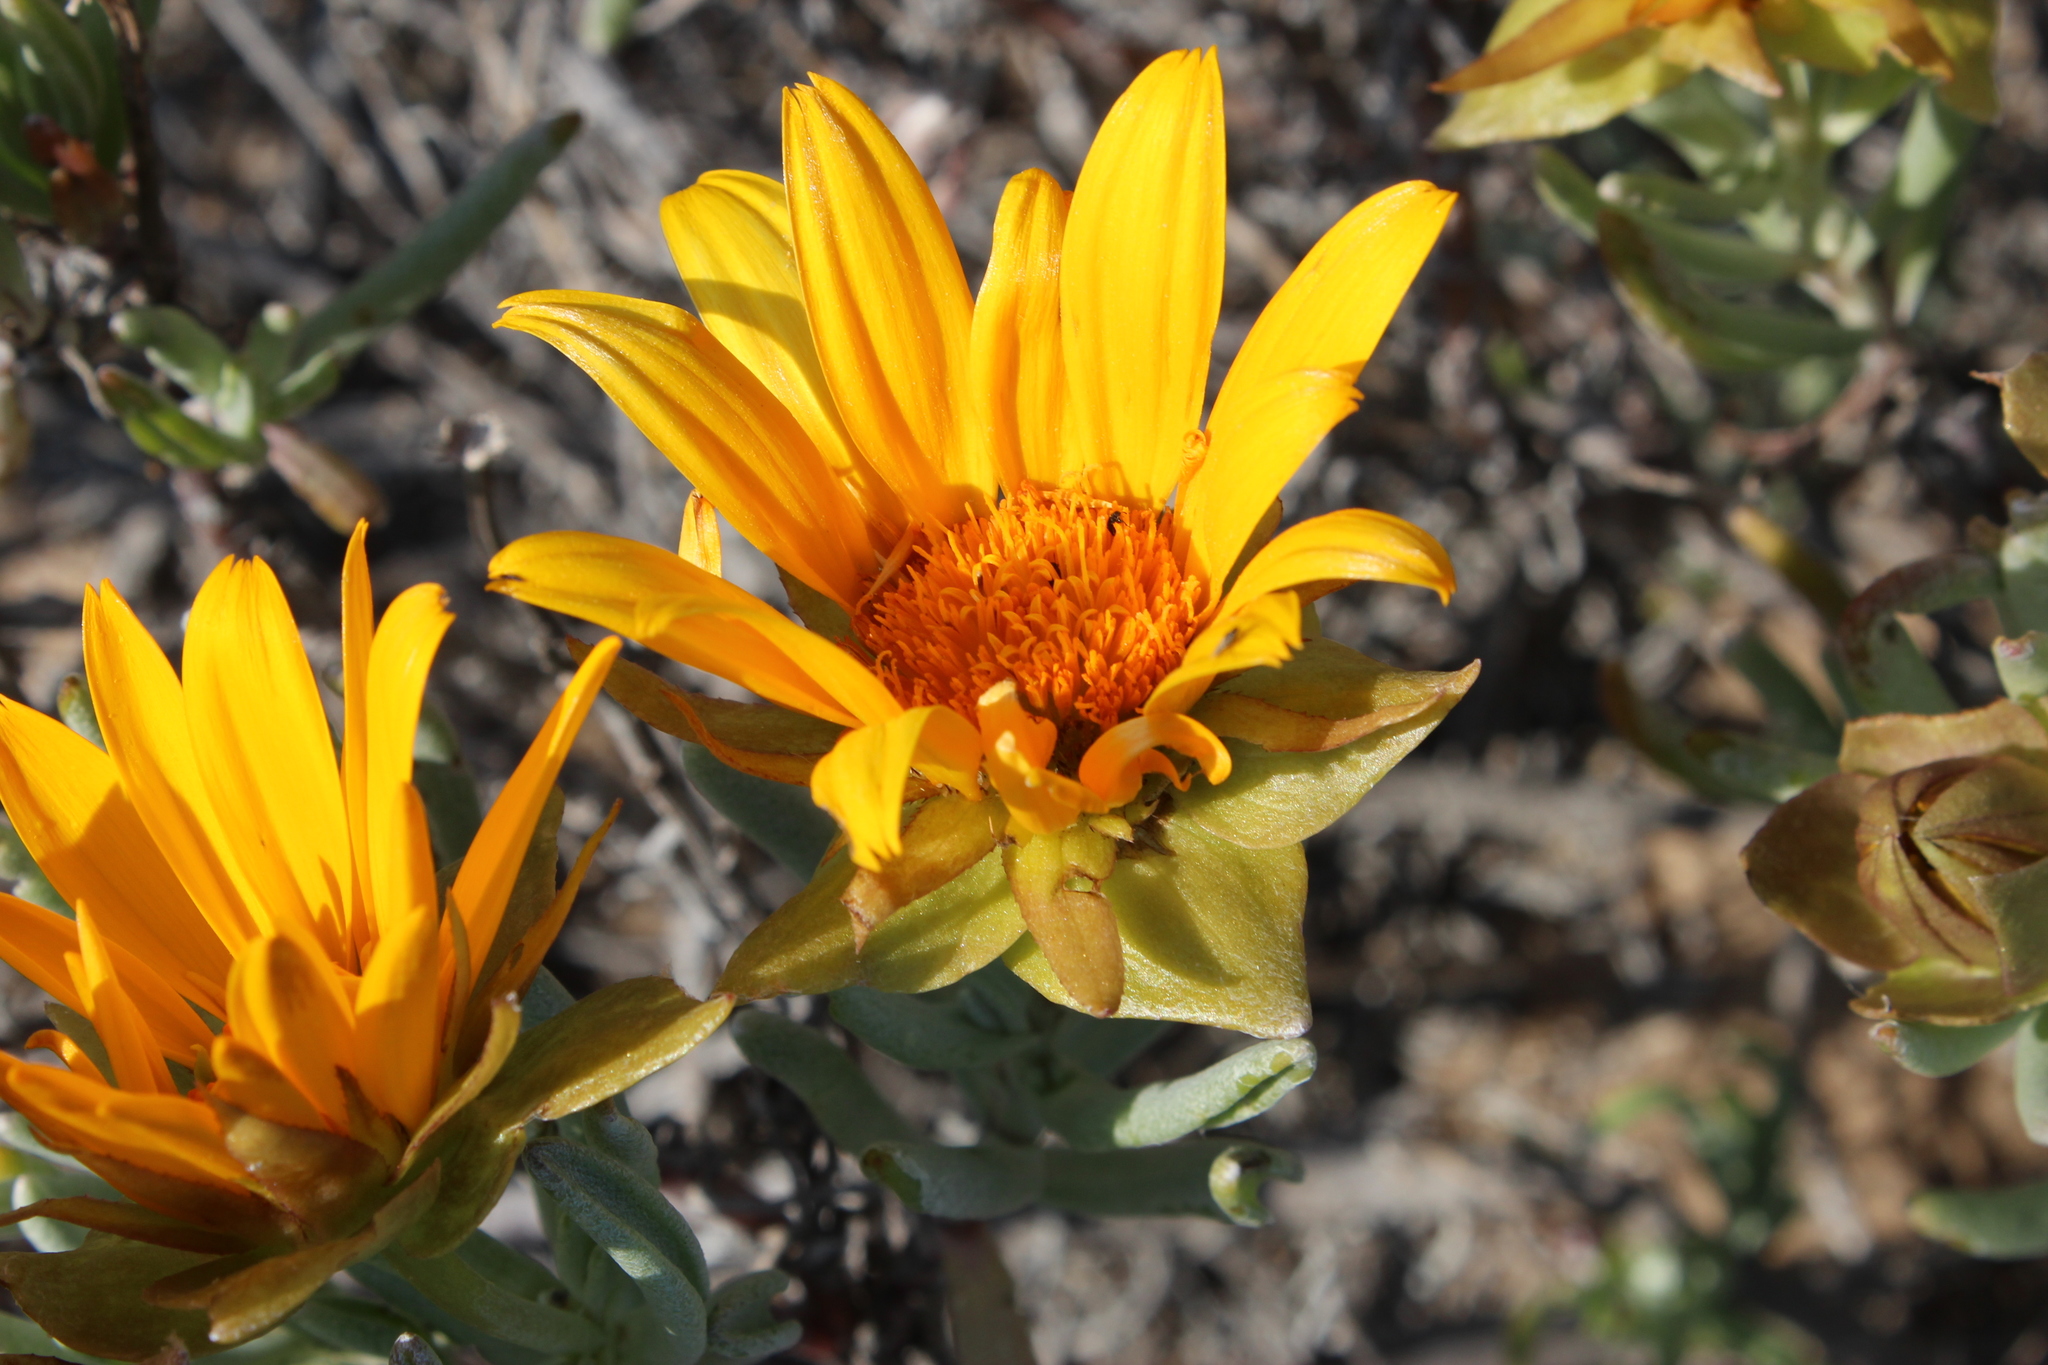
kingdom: Plantae
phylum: Tracheophyta
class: Magnoliopsida
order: Asterales
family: Asteraceae
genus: Didelta
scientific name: Didelta carnosa
